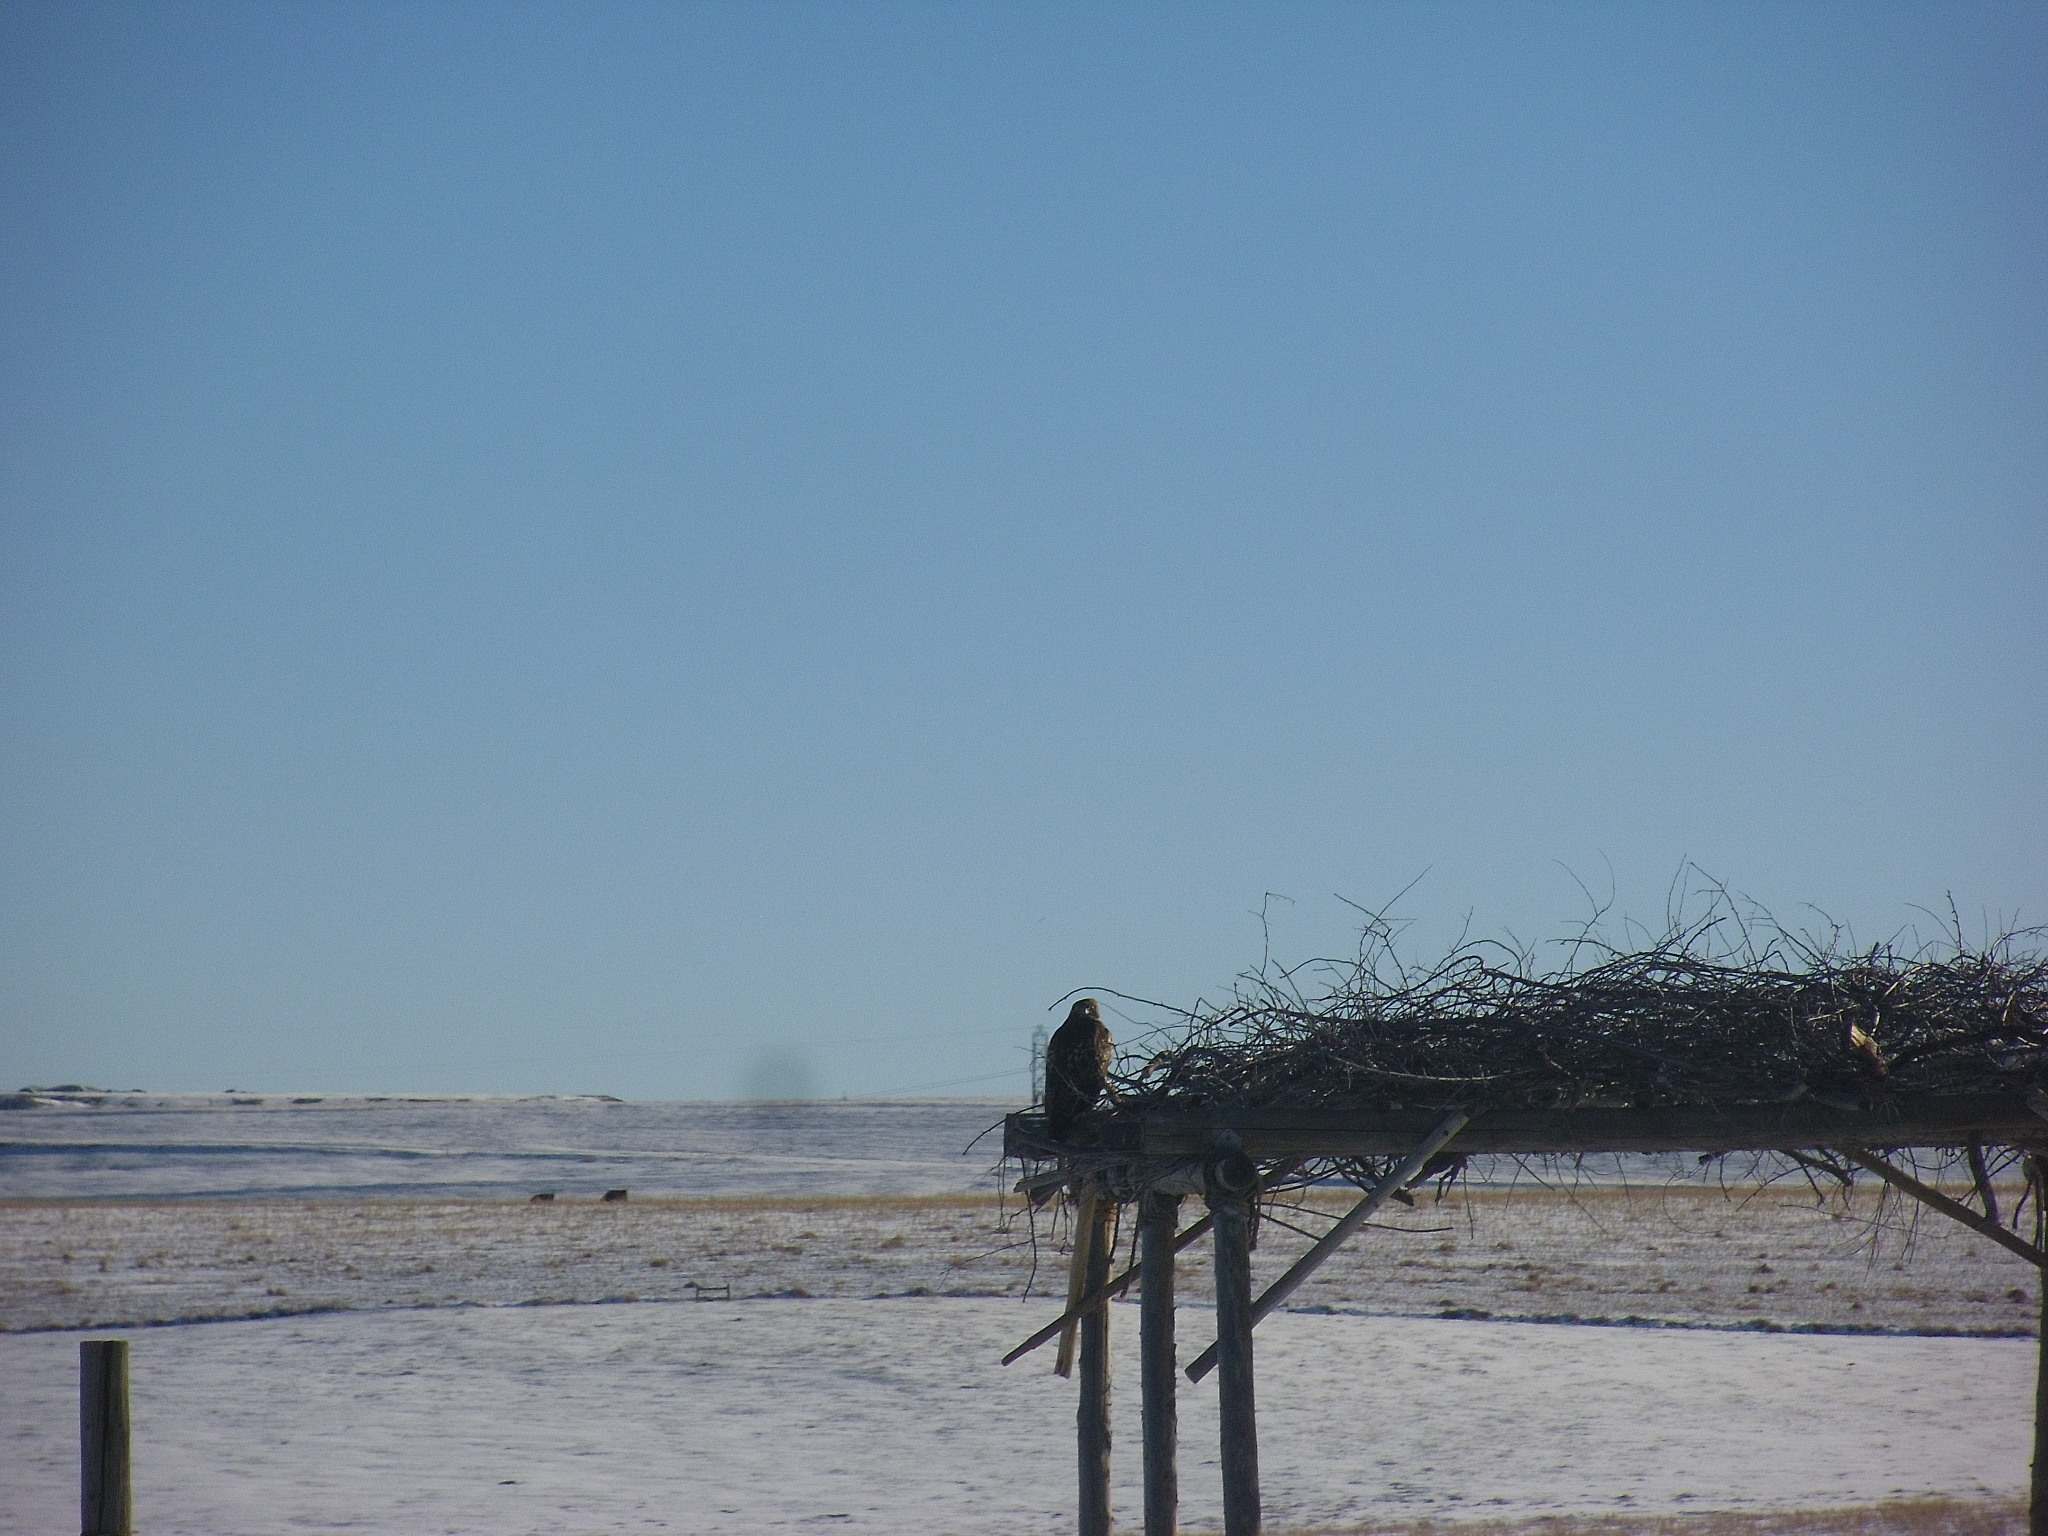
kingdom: Animalia
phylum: Chordata
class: Aves
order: Accipitriformes
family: Accipitridae
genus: Buteo
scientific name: Buteo jamaicensis
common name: Red-tailed hawk
